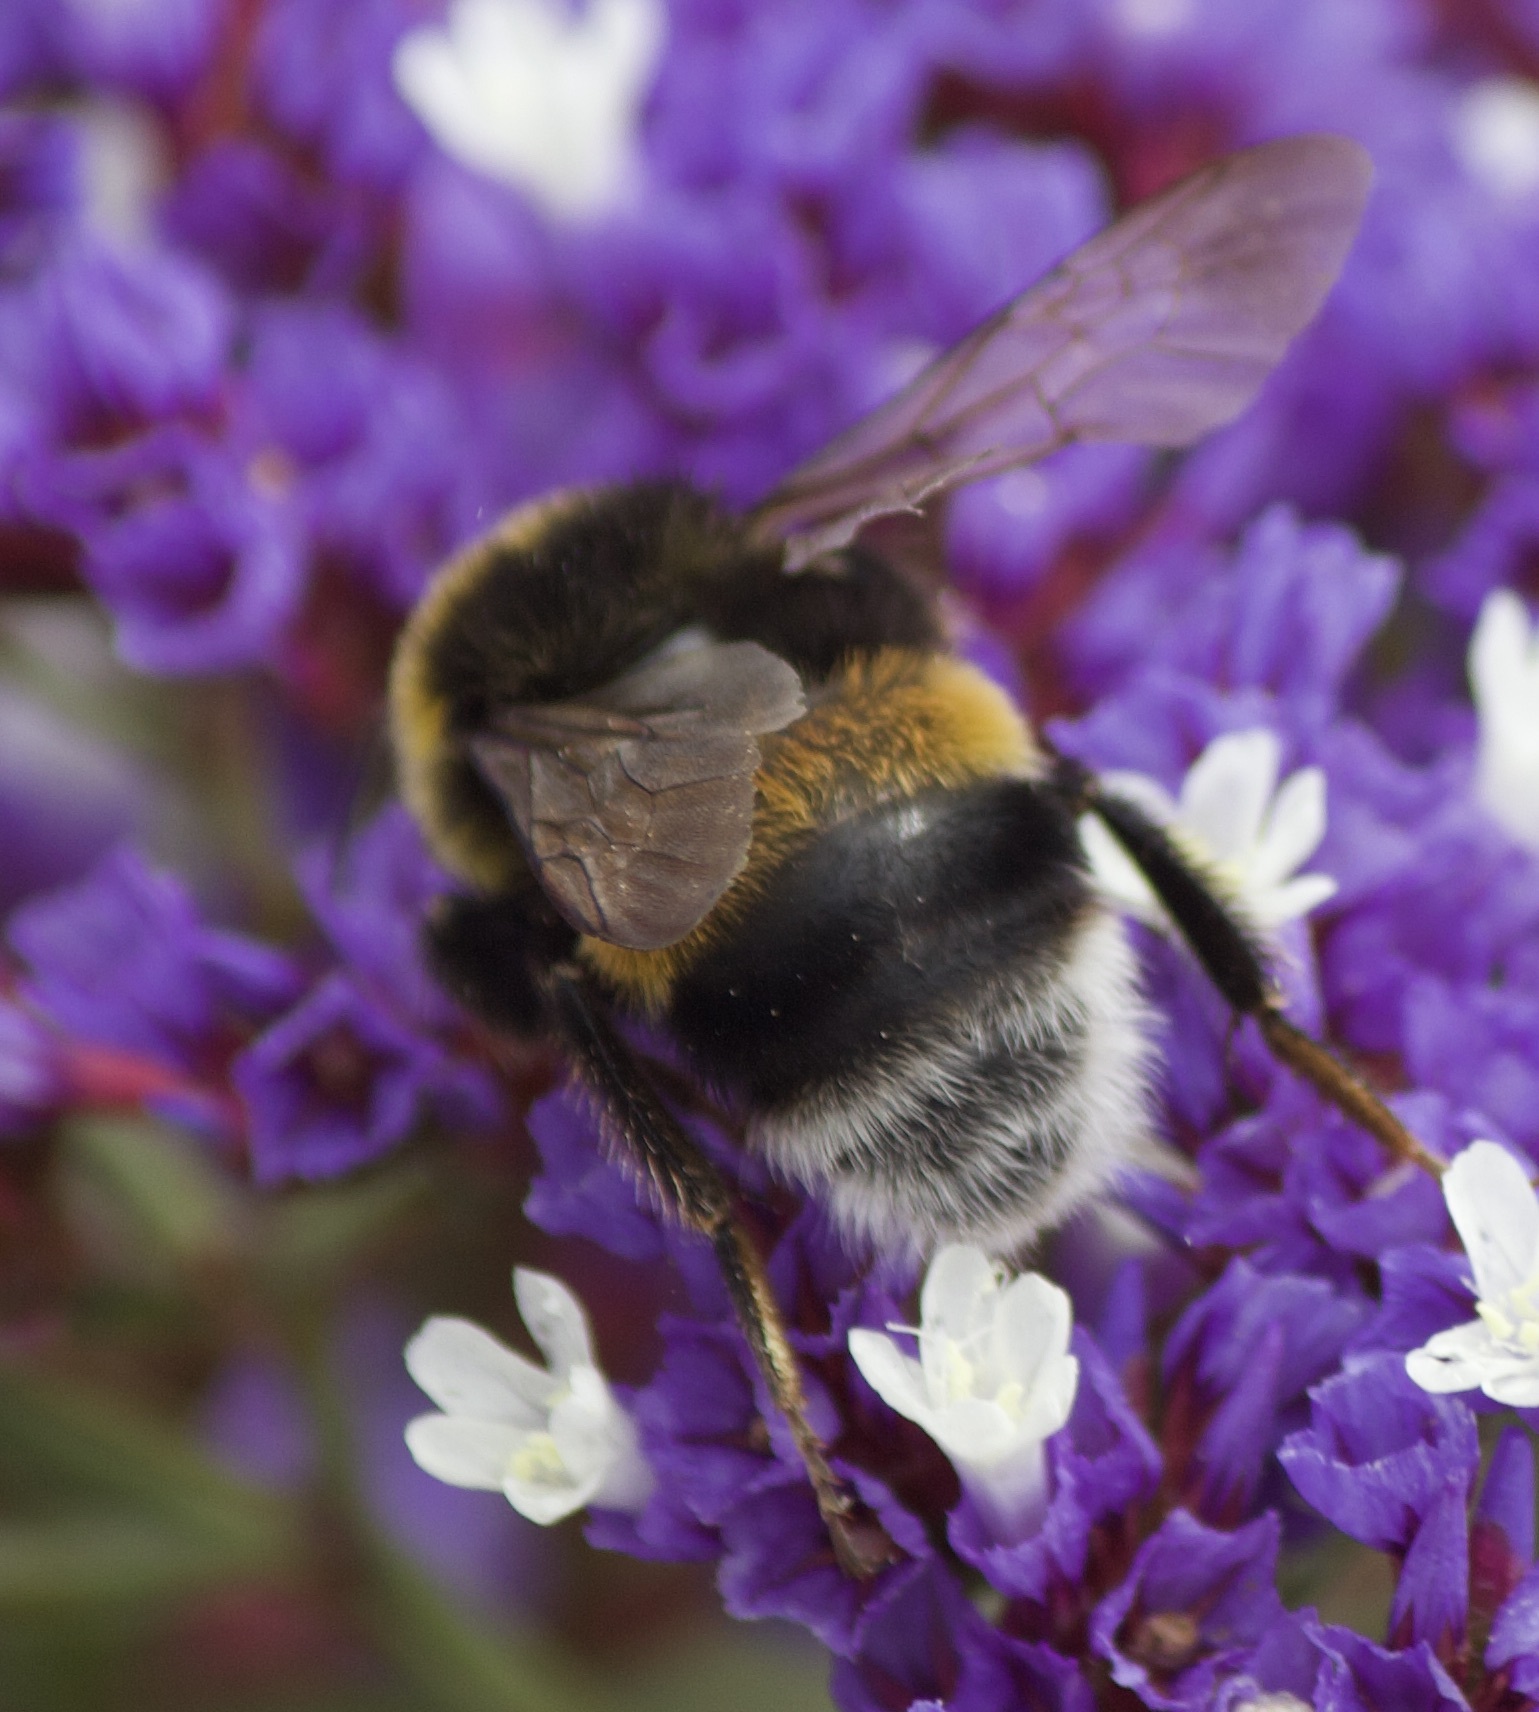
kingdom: Animalia
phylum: Arthropoda
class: Insecta
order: Hymenoptera
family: Apidae
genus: Bombus
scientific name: Bombus terrestris
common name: Buff-tailed bumblebee
